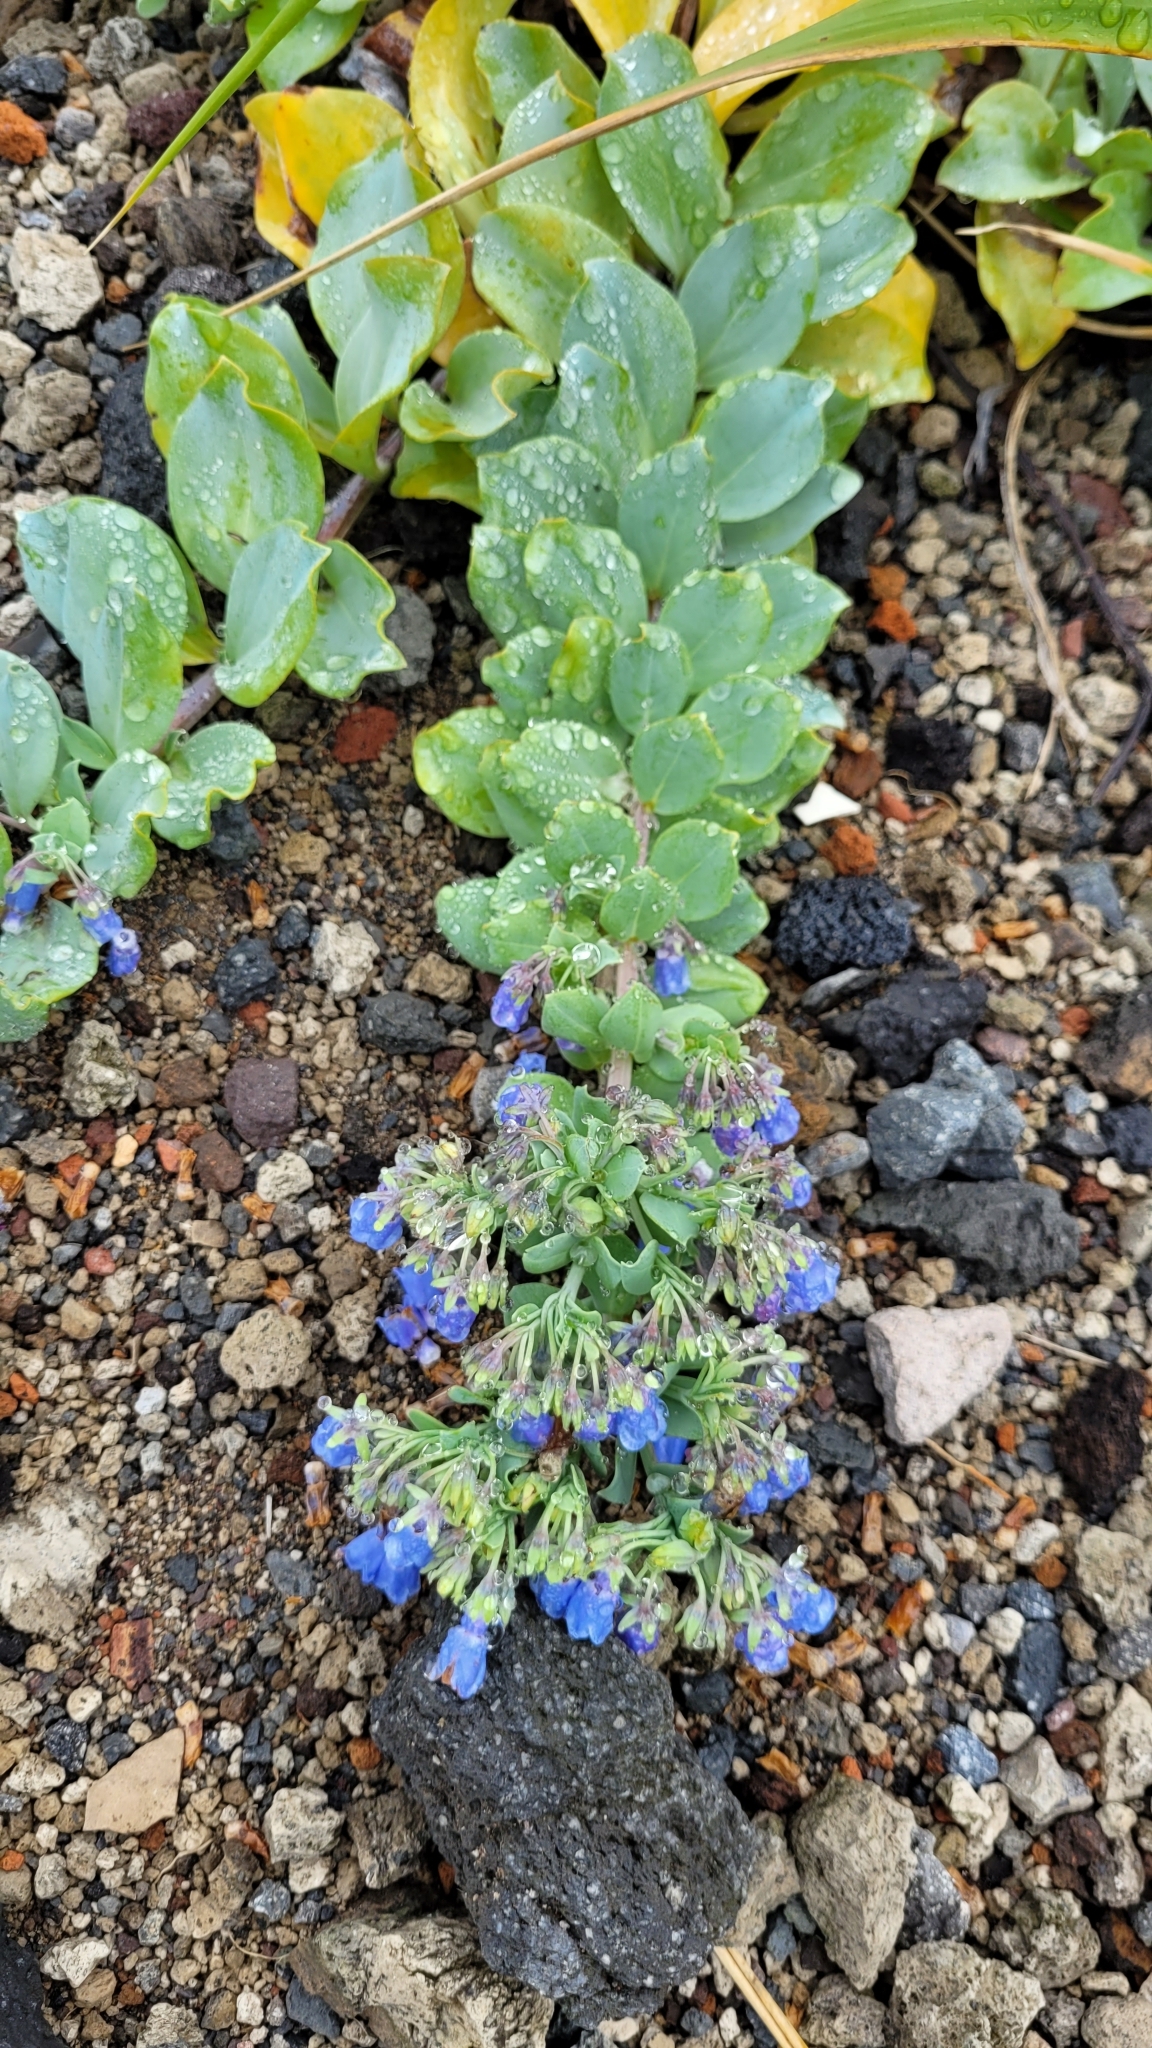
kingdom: Plantae
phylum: Tracheophyta
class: Magnoliopsida
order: Boraginales
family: Boraginaceae
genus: Mertensia
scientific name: Mertensia maritima
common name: Oysterplant
